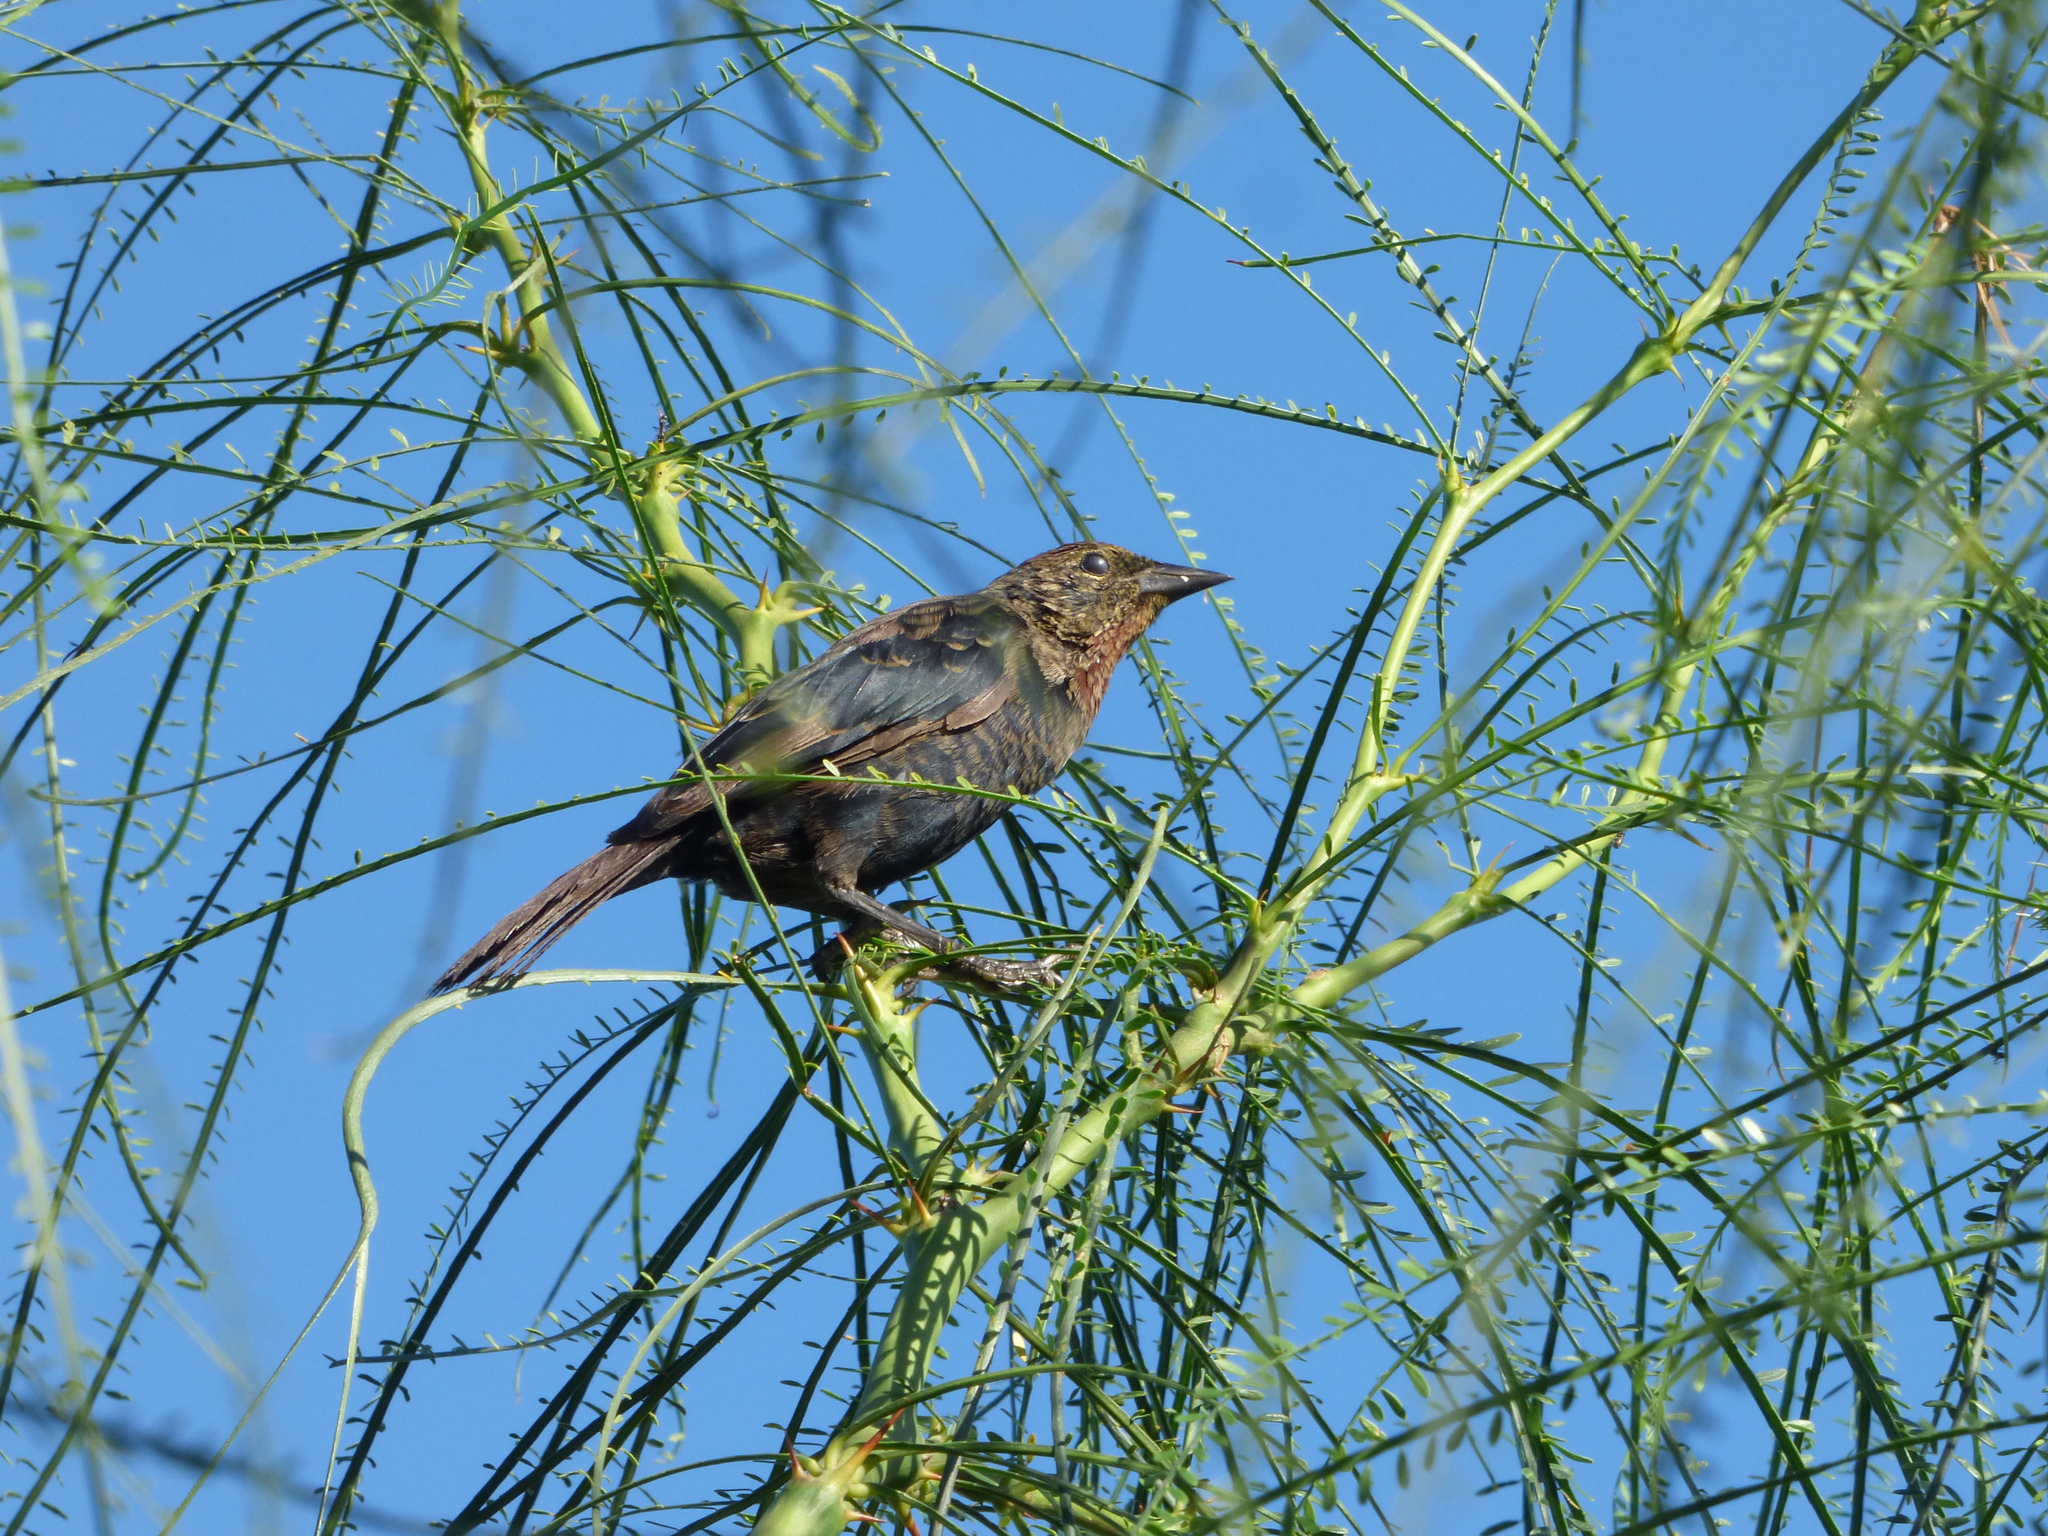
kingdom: Animalia
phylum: Chordata
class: Aves
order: Passeriformes
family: Icteridae
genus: Chrysomus
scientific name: Chrysomus ruficapillus
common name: Chestnut-capped blackbird
